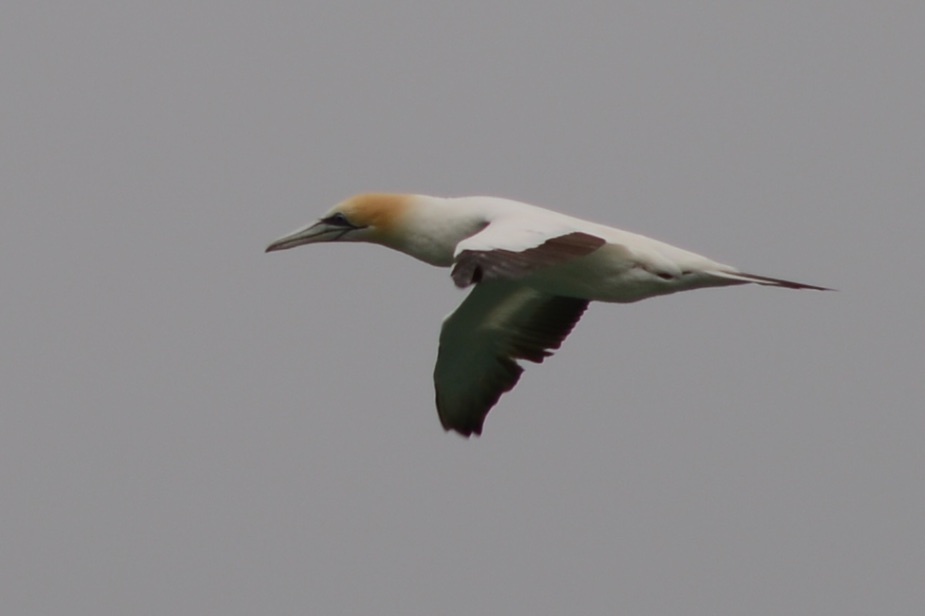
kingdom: Animalia
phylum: Chordata
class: Aves
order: Suliformes
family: Sulidae
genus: Morus
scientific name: Morus serrator
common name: Australasian gannet
